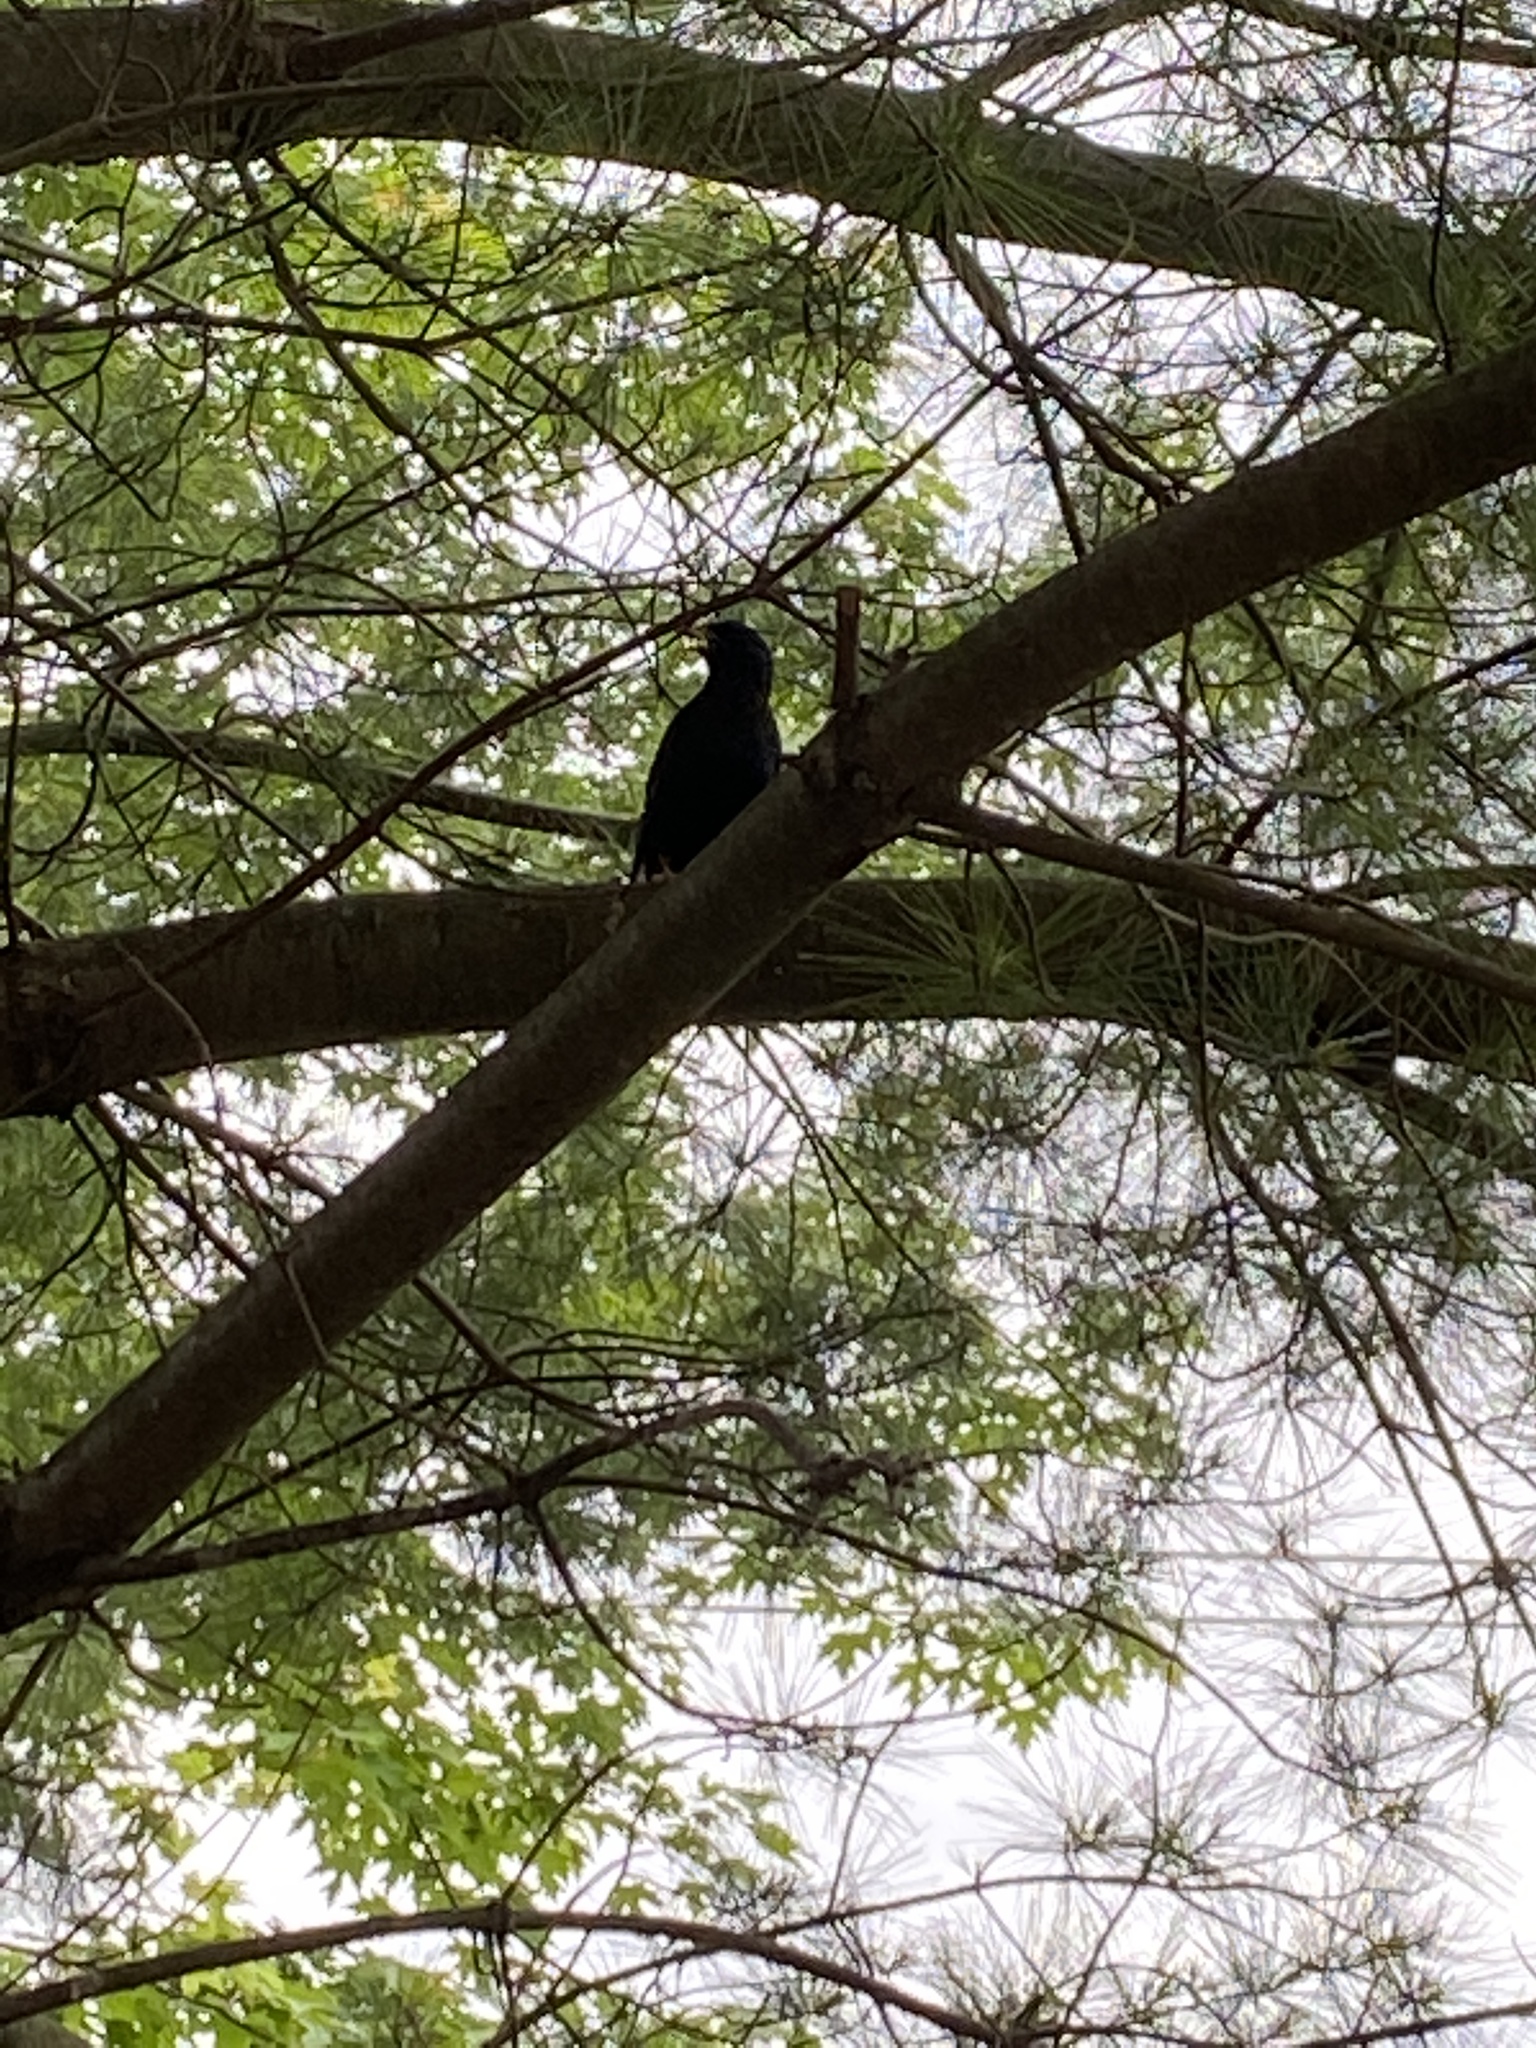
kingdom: Animalia
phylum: Chordata
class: Aves
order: Passeriformes
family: Sturnidae
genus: Sturnus
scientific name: Sturnus vulgaris
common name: Common starling
